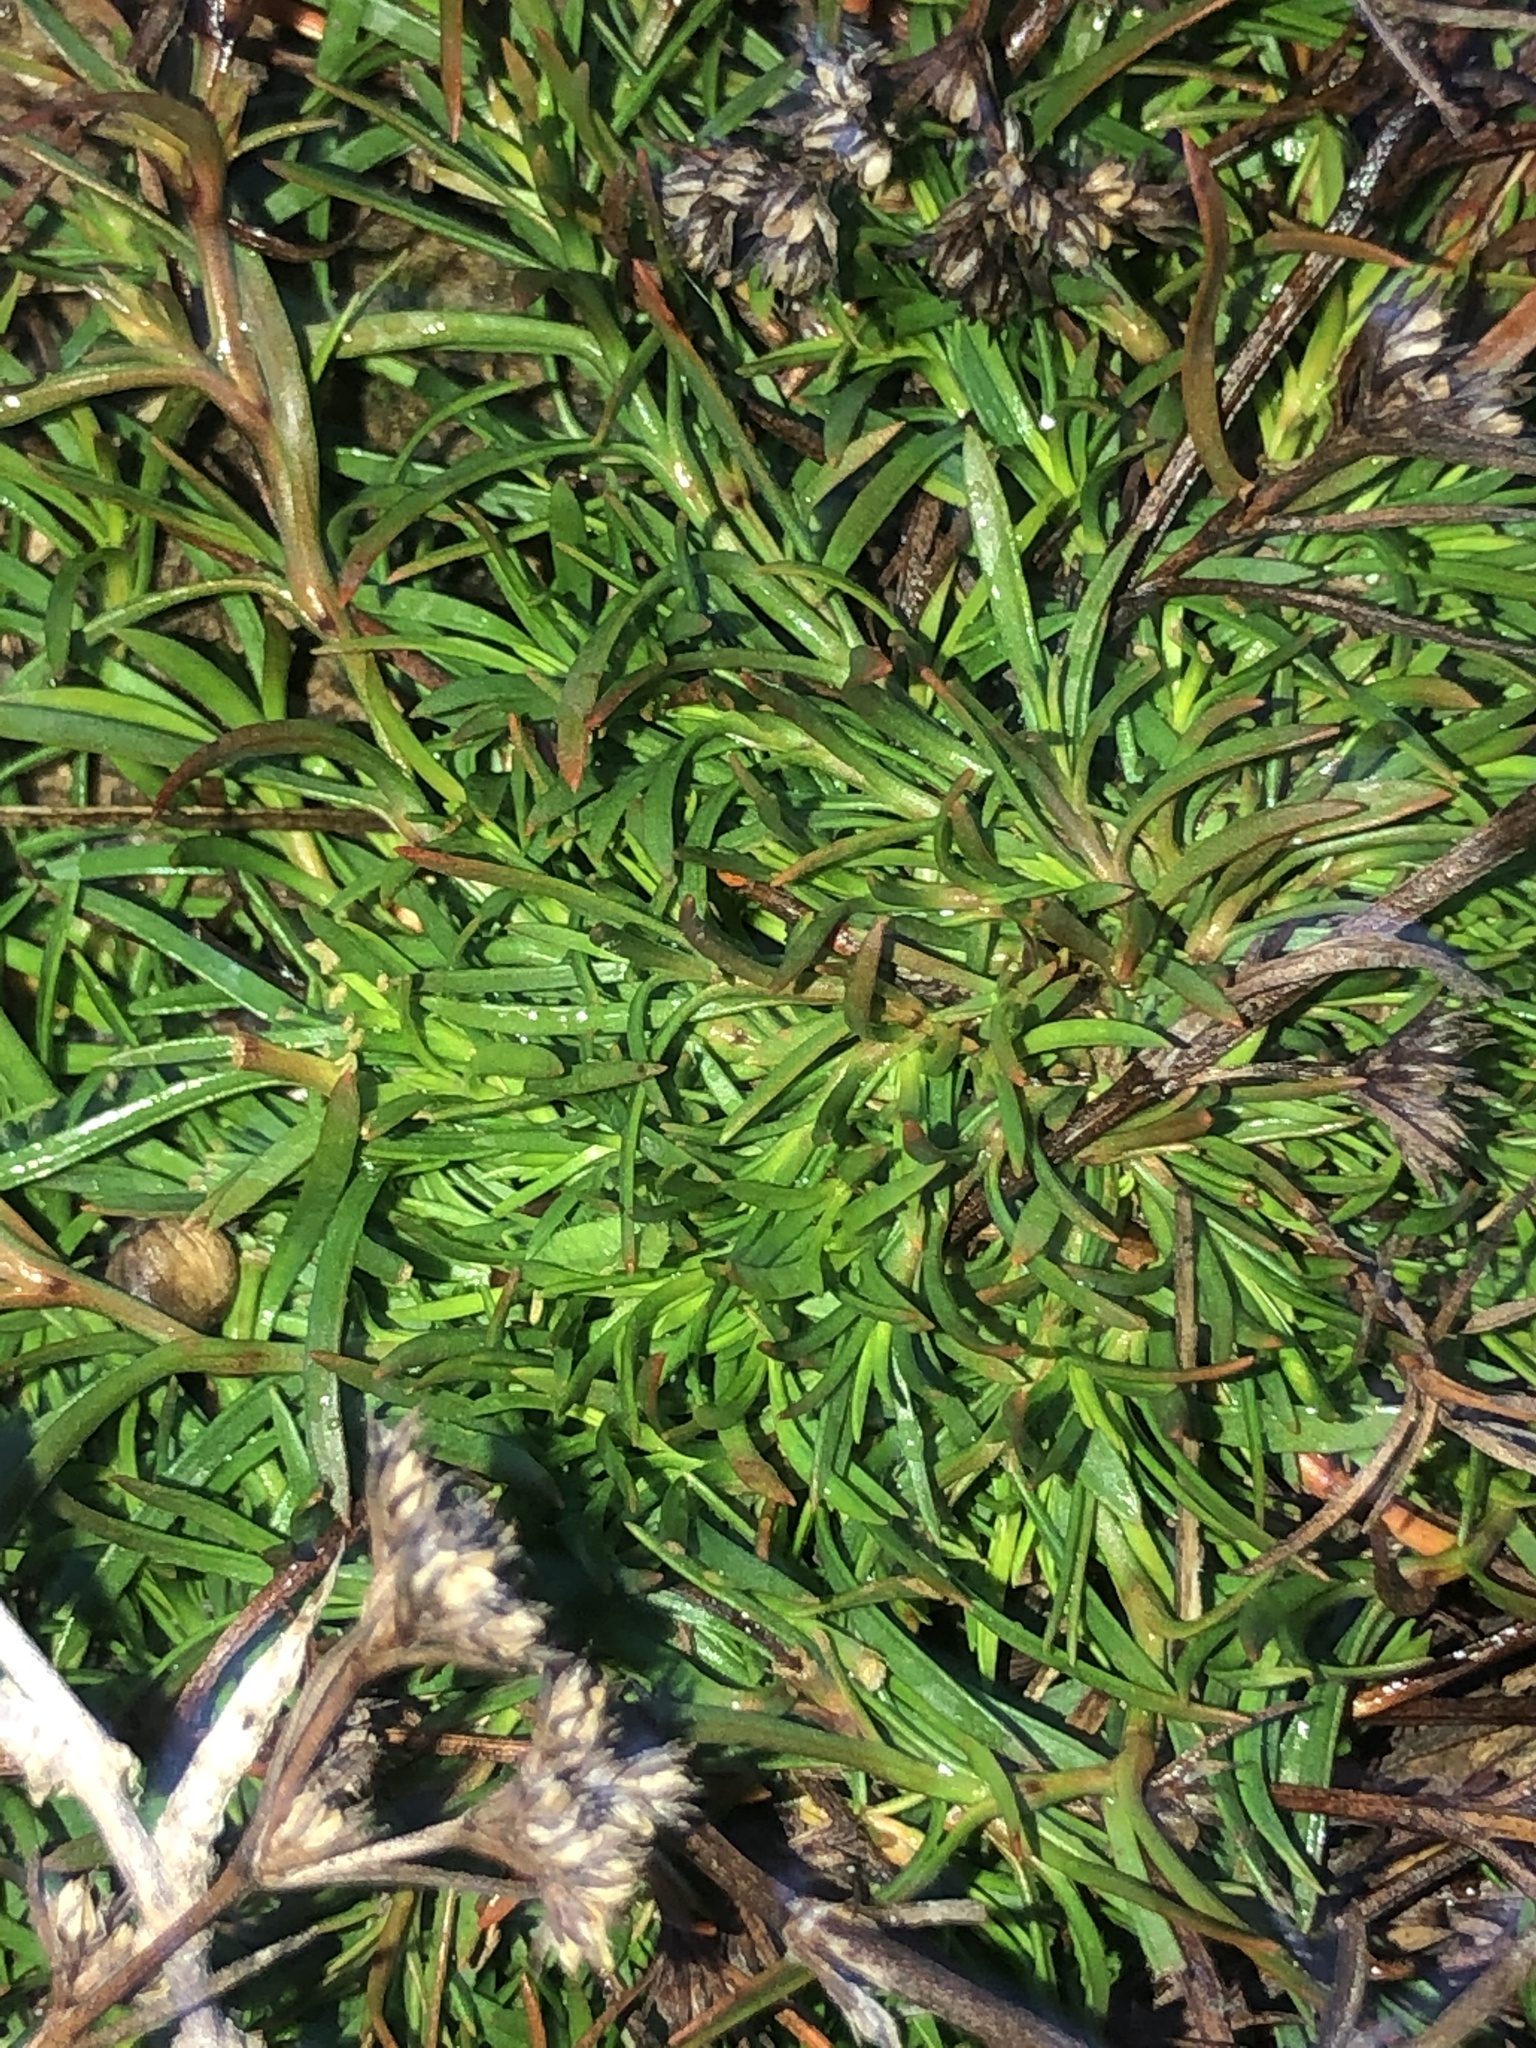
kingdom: Plantae
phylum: Tracheophyta
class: Magnoliopsida
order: Lamiales
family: Tetrachondraceae
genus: Polypremum
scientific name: Polypremum procumbens
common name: Juniper-leaf
